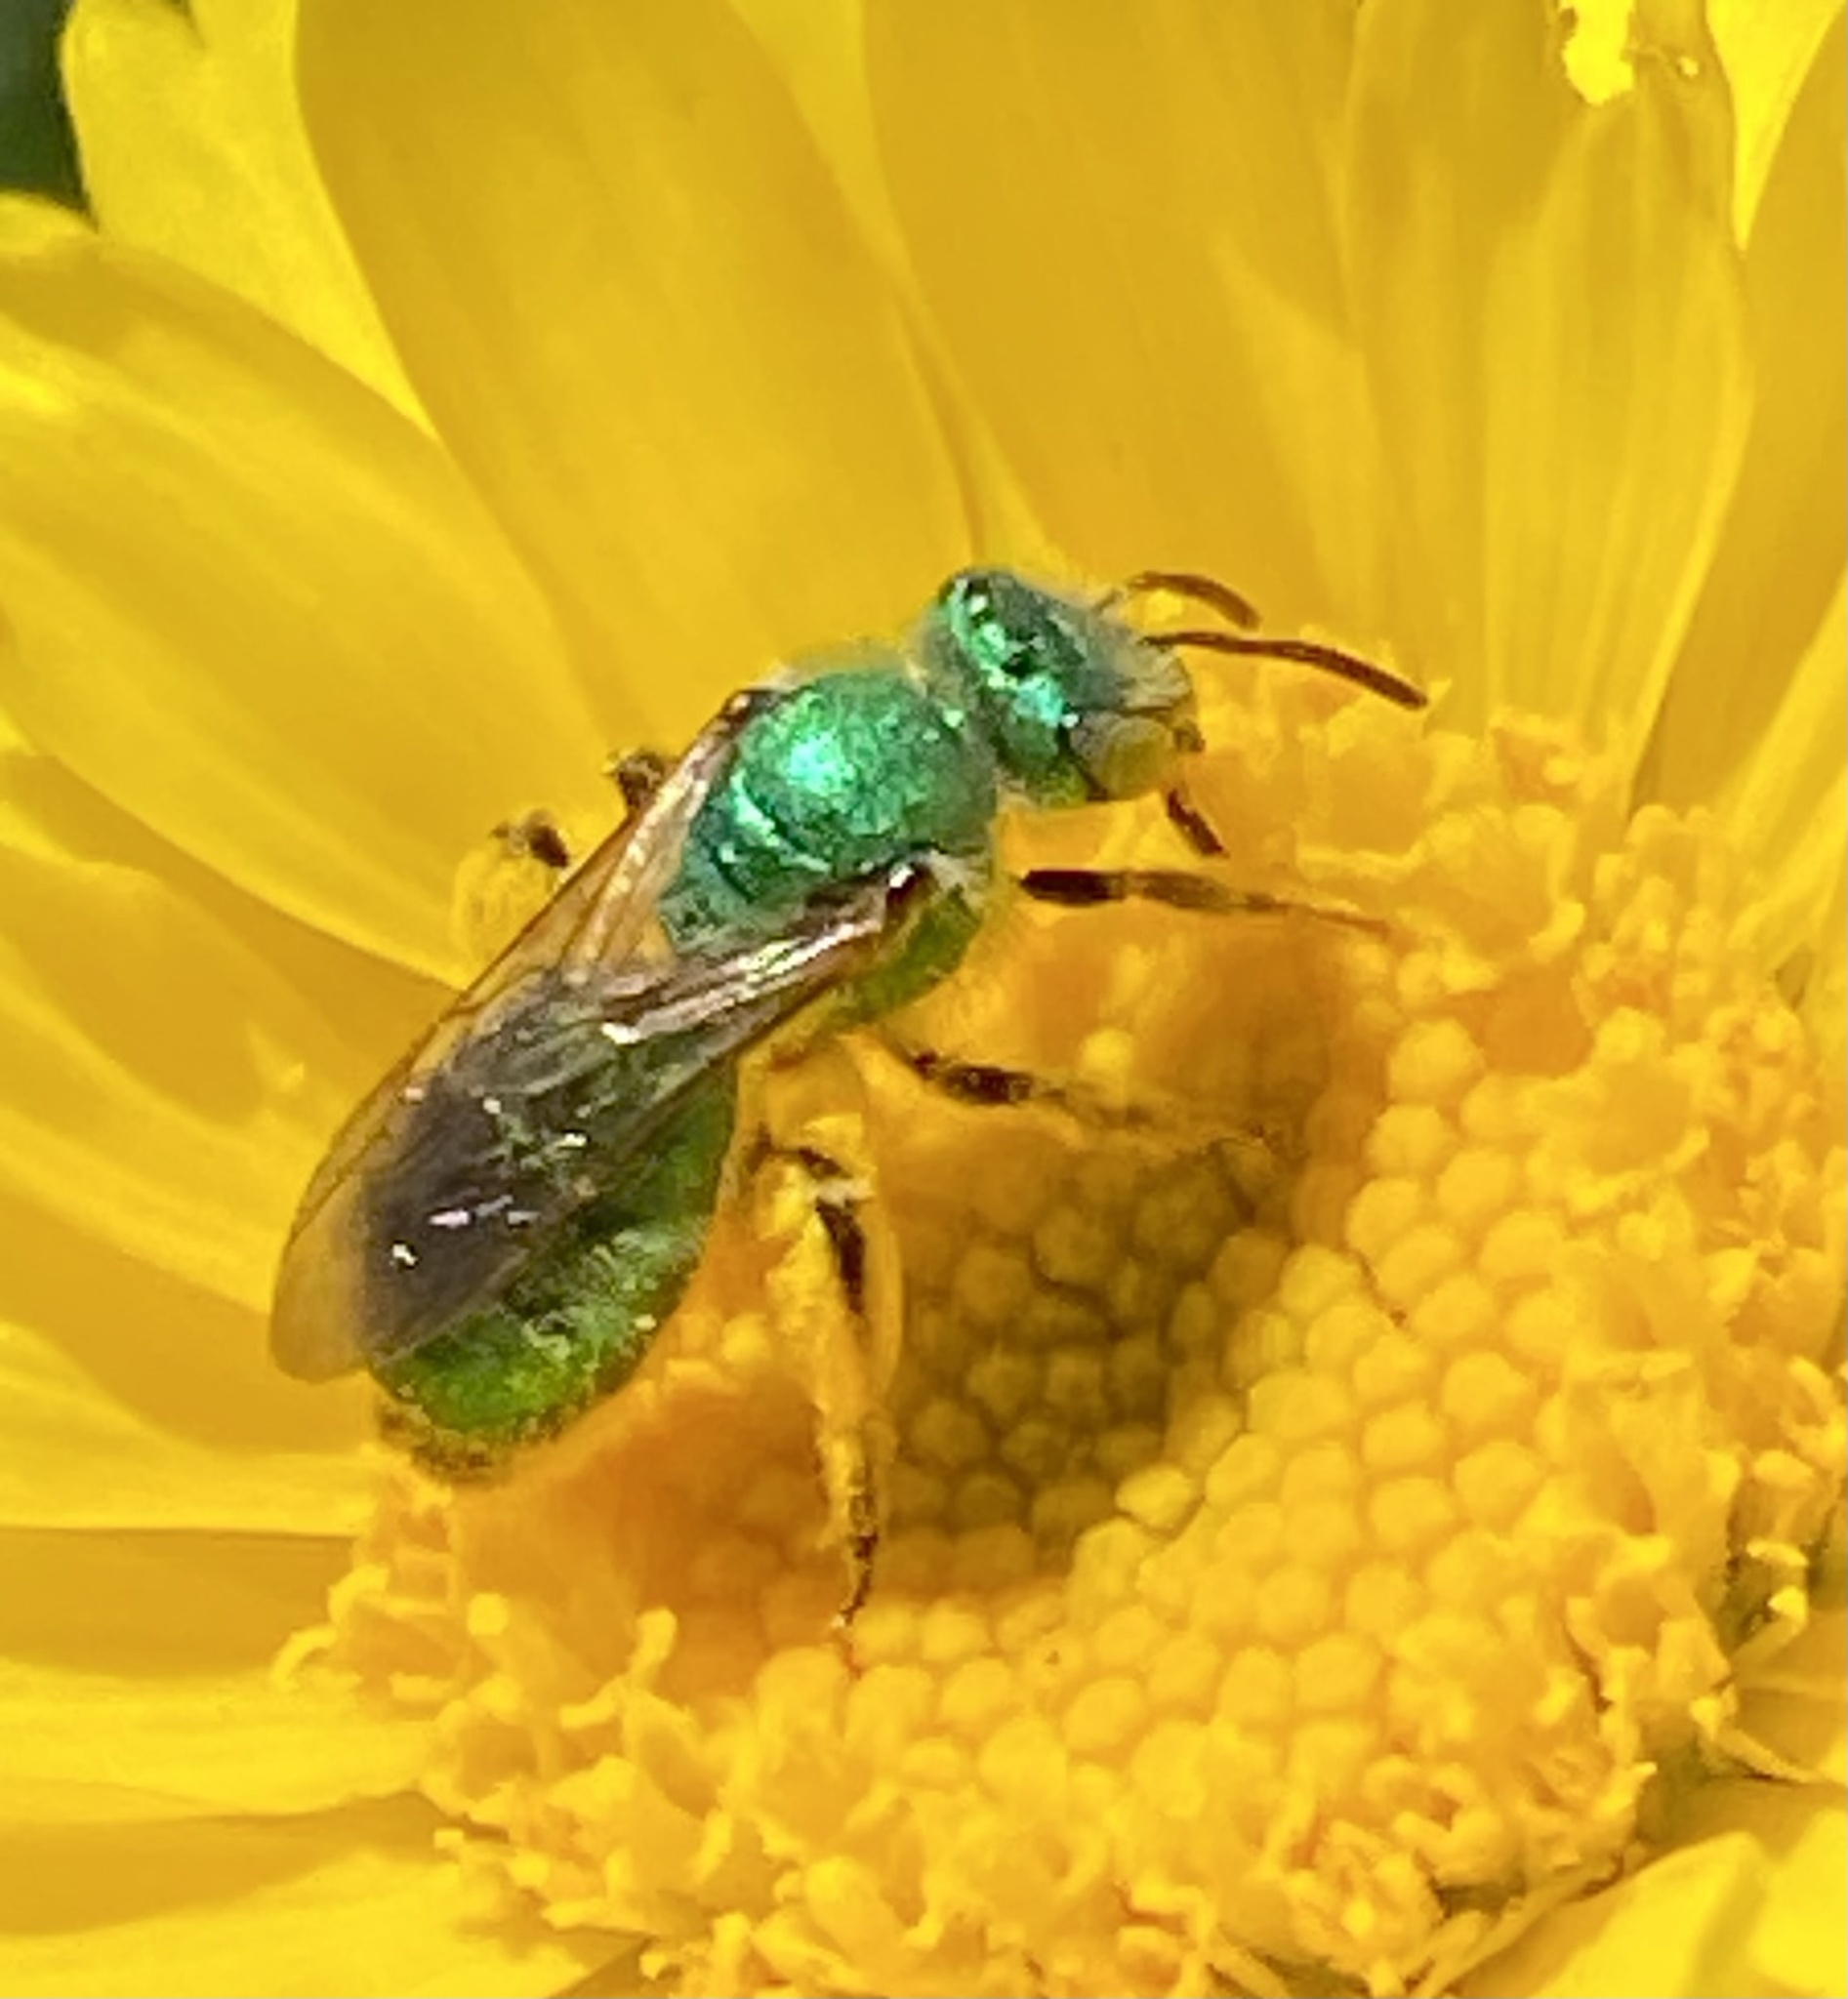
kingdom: Animalia
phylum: Arthropoda
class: Insecta
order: Hymenoptera
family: Halictidae
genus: Agapostemon
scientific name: Agapostemon texanus
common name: Texas striped sweat bee
